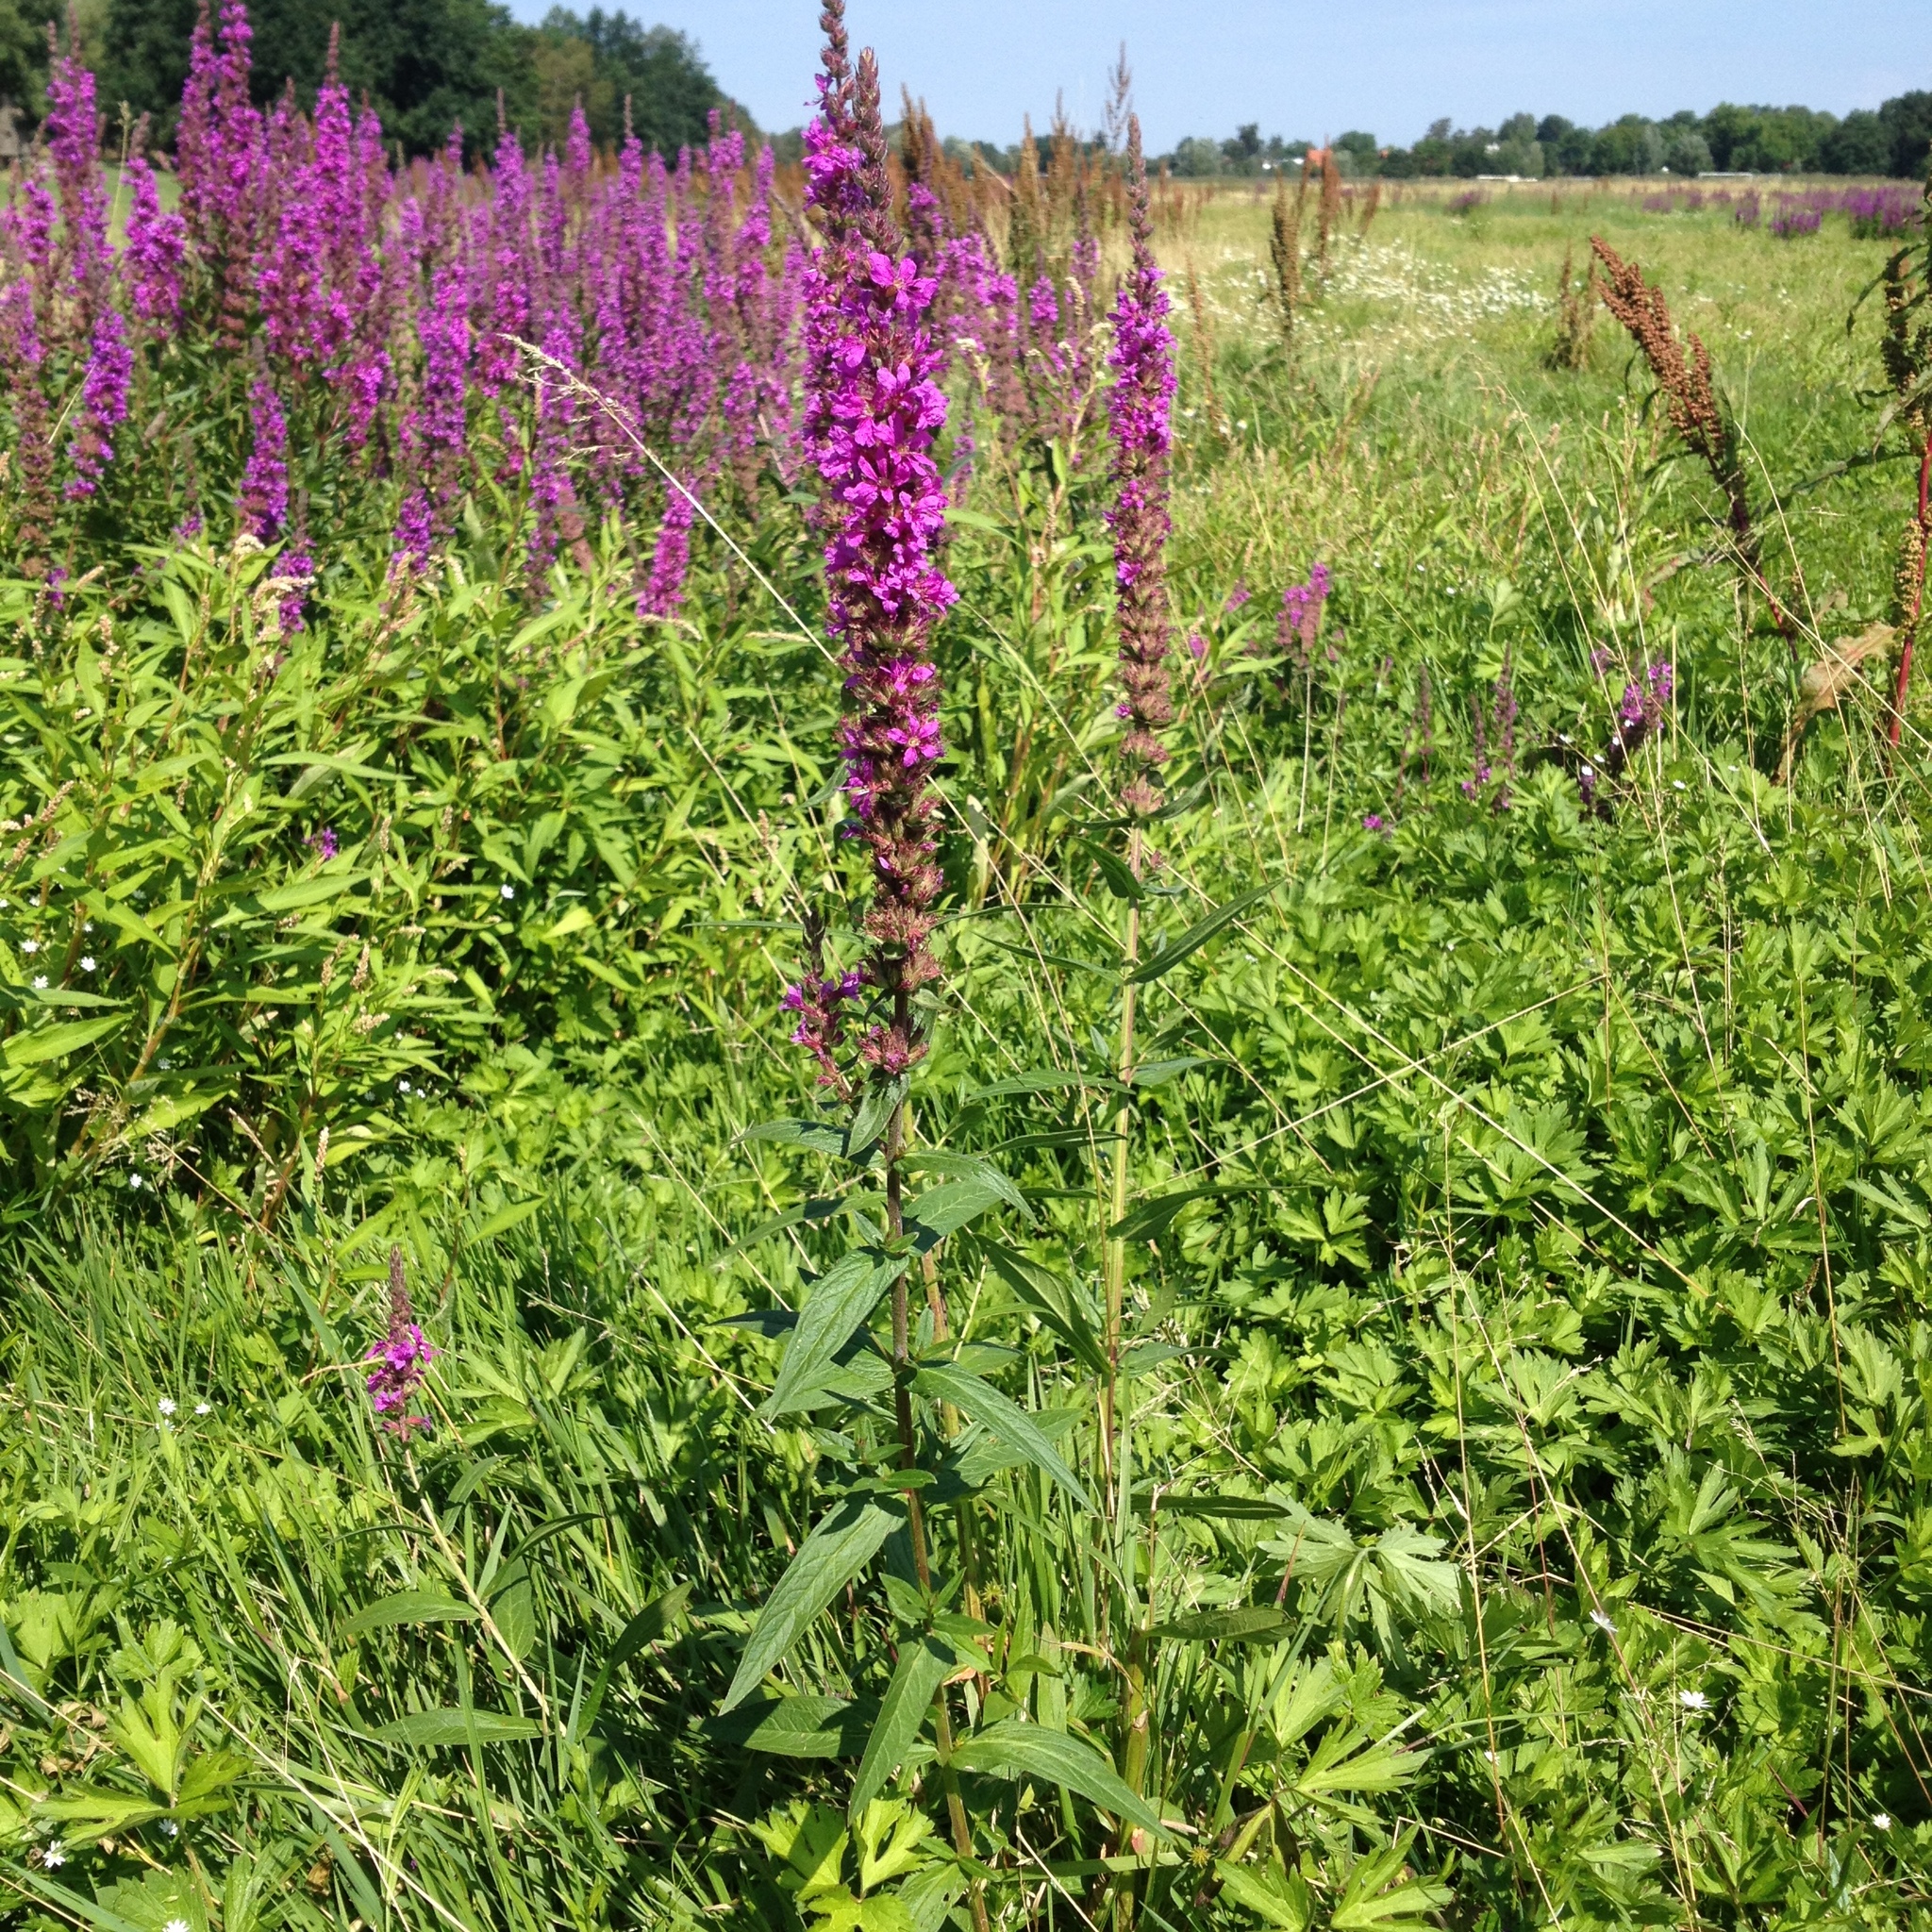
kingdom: Plantae
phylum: Tracheophyta
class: Magnoliopsida
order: Myrtales
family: Lythraceae
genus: Lythrum
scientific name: Lythrum salicaria
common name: Purple loosestrife
